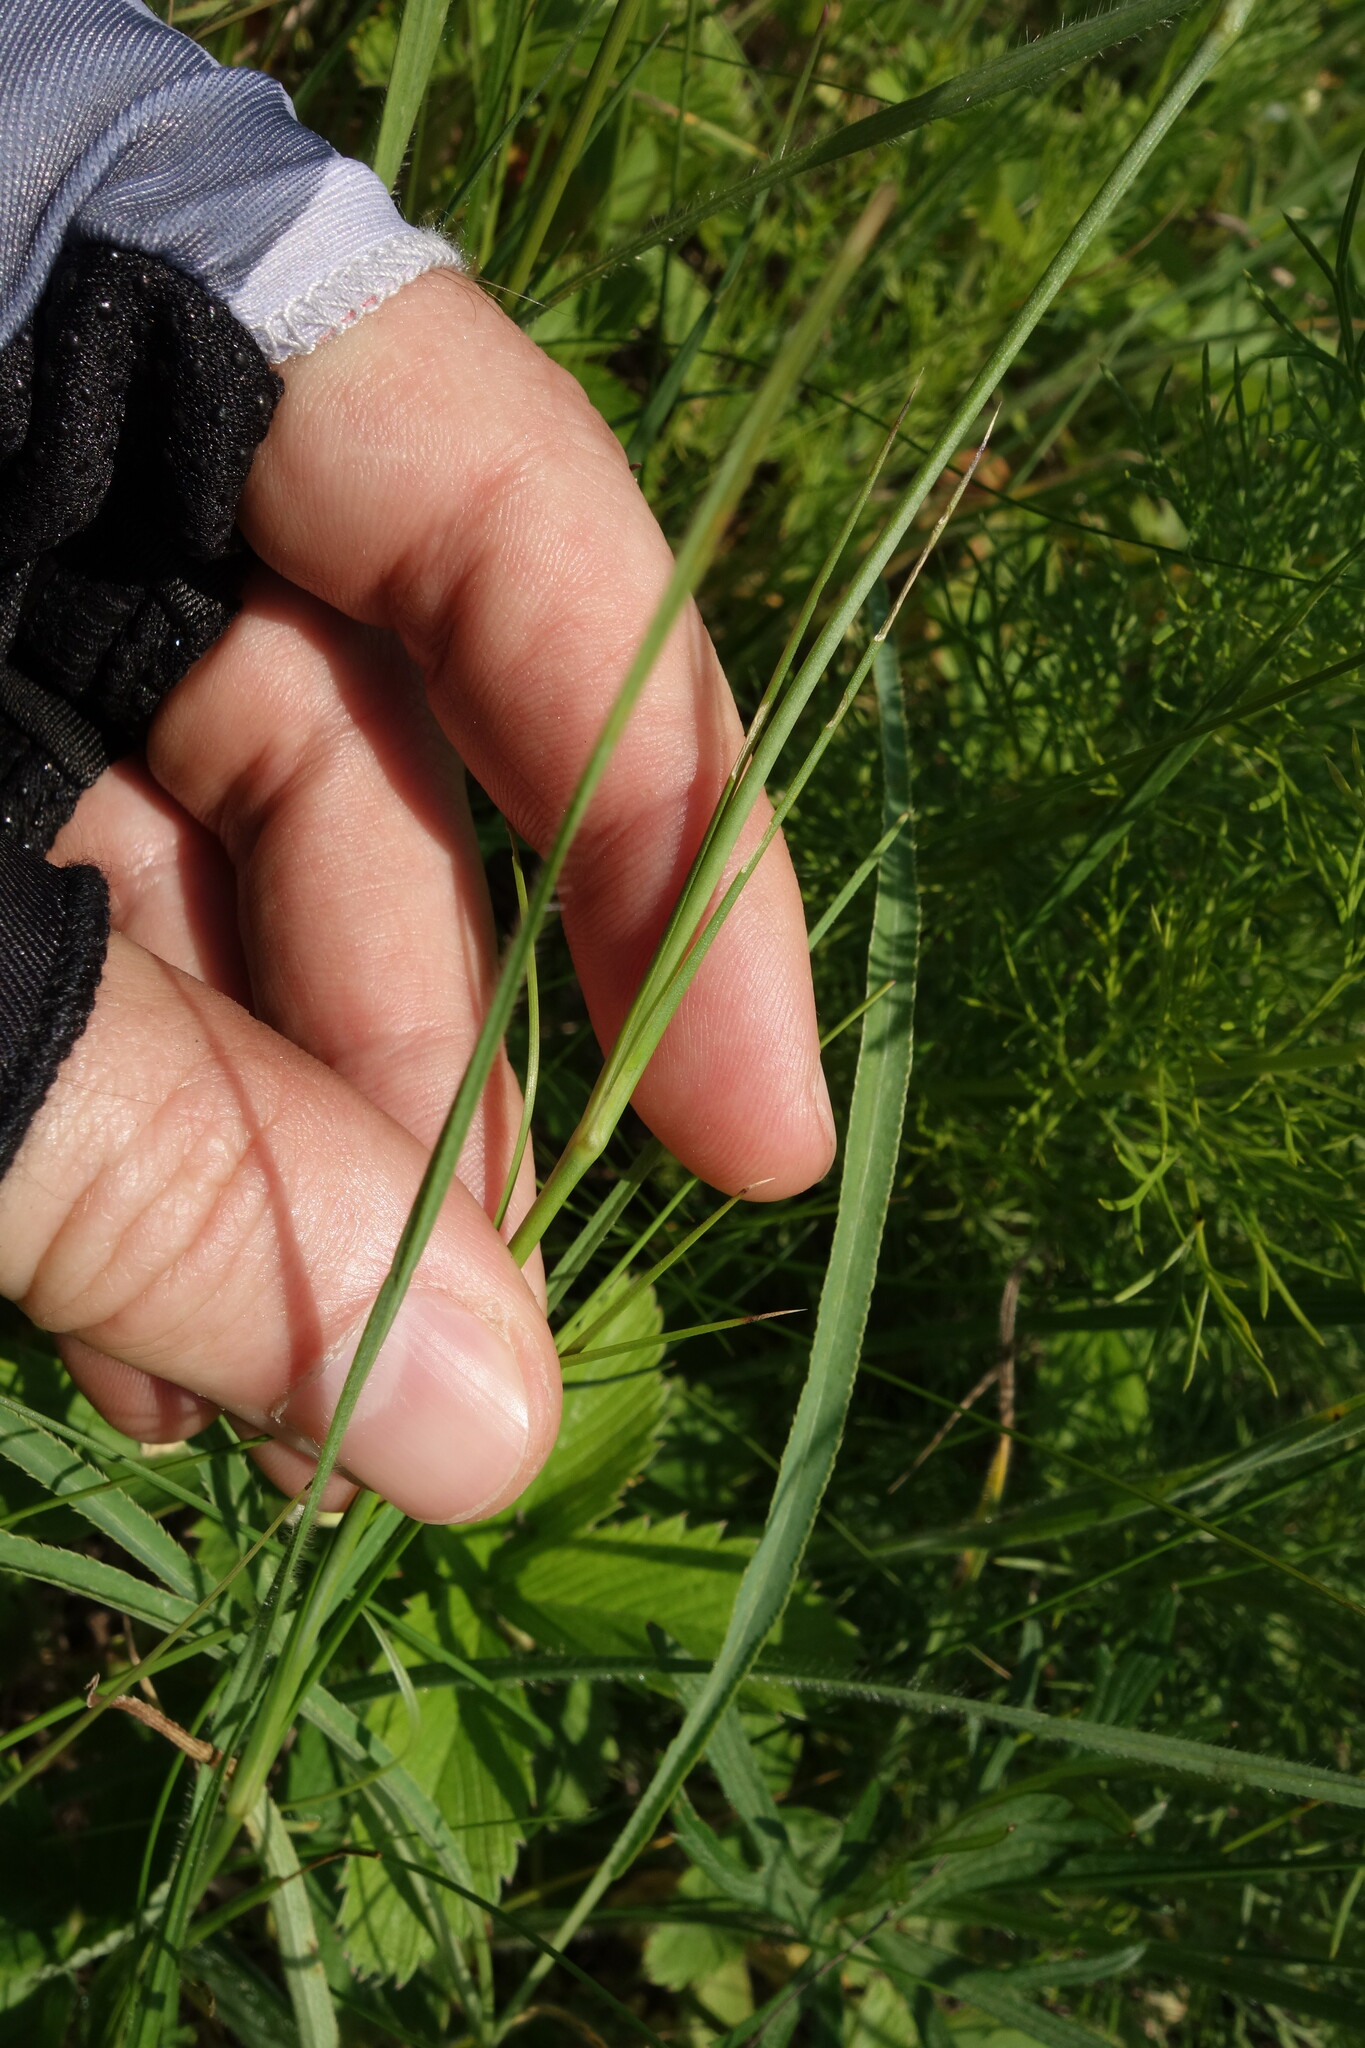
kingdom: Plantae
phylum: Tracheophyta
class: Magnoliopsida
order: Caryophyllales
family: Caryophyllaceae
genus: Eremogone
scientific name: Eremogone saxatilis
